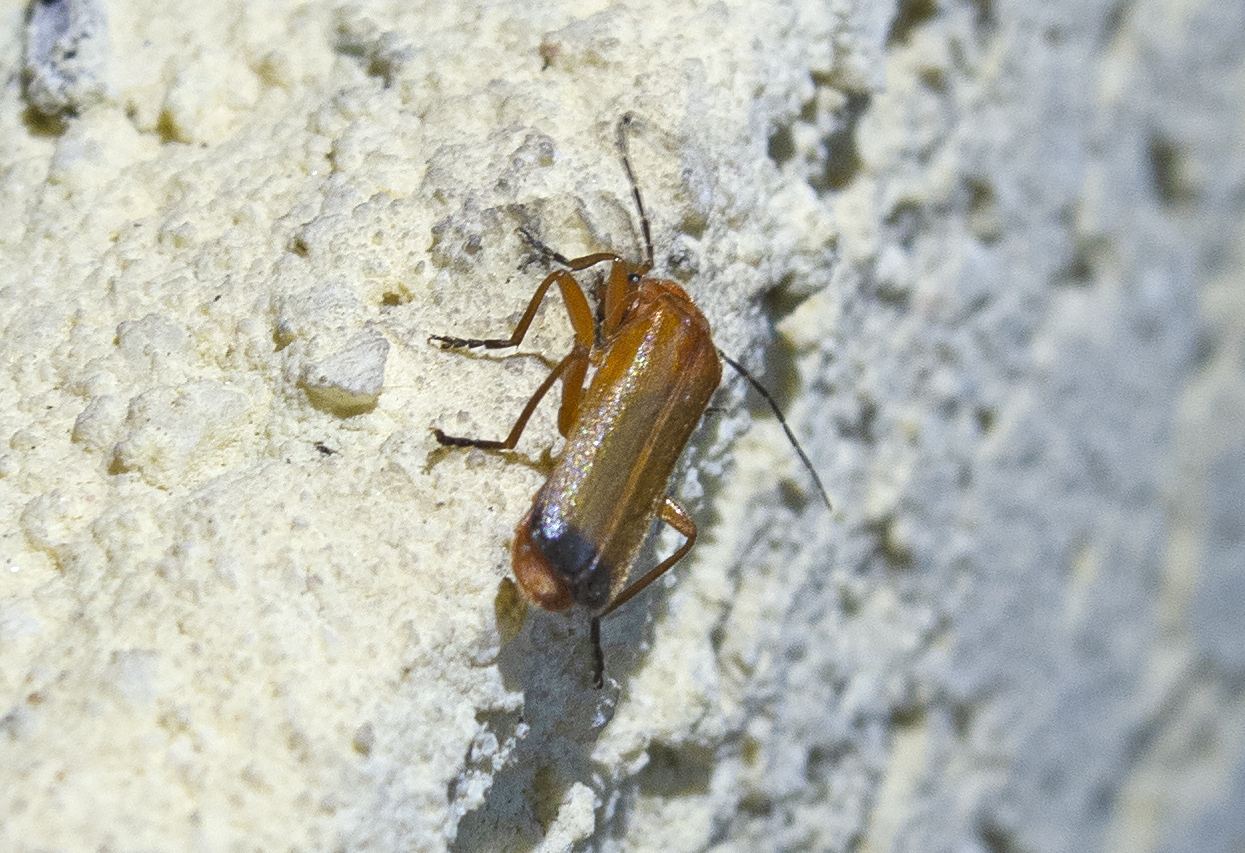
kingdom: Animalia
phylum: Arthropoda
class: Insecta
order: Coleoptera
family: Cantharidae
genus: Rhagonycha
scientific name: Rhagonycha fulva
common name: Common red soldier beetle
